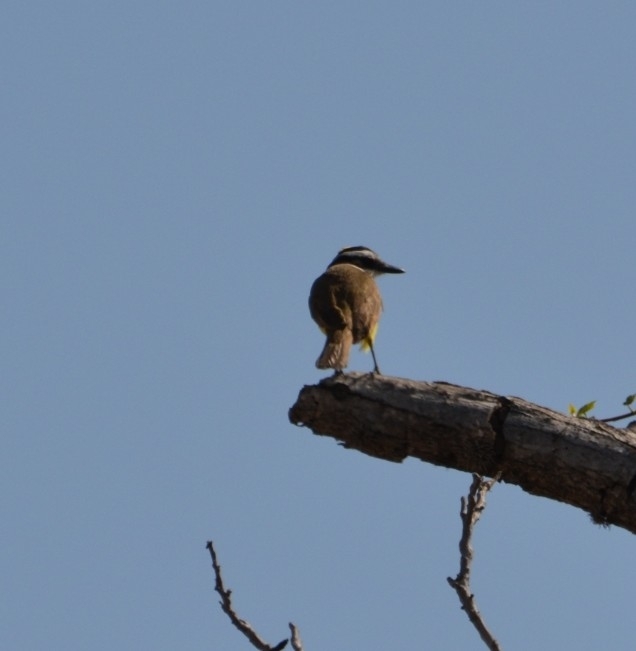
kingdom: Animalia
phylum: Chordata
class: Aves
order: Passeriformes
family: Tyrannidae
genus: Pitangus
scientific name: Pitangus sulphuratus
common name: Great kiskadee
